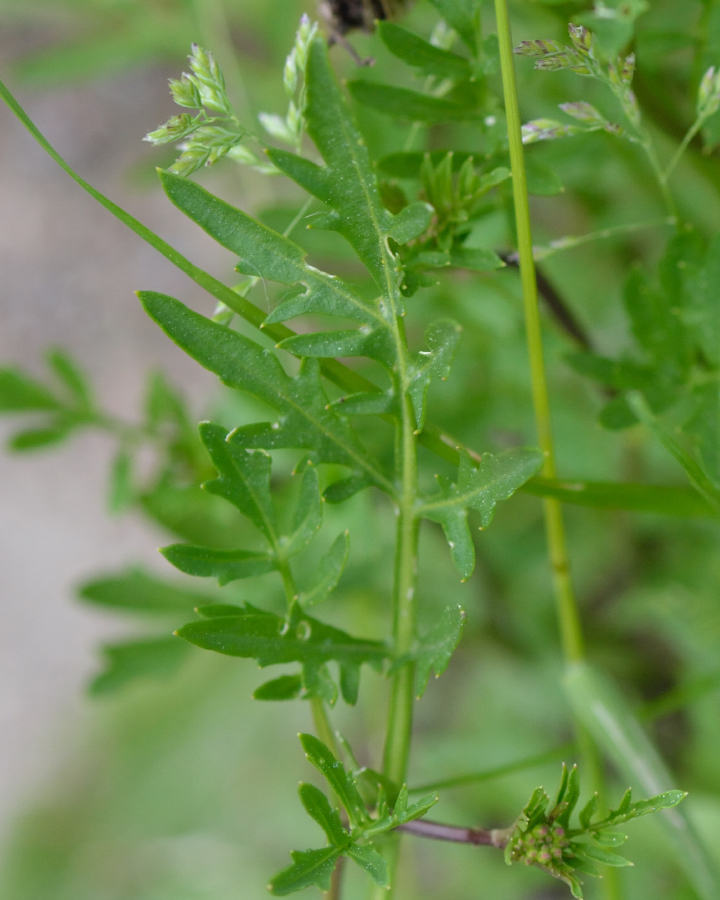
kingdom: Plantae
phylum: Tracheophyta
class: Magnoliopsida
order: Brassicales
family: Brassicaceae
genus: Rorippa
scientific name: Rorippa sylvestris
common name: Creeping yellowcress
